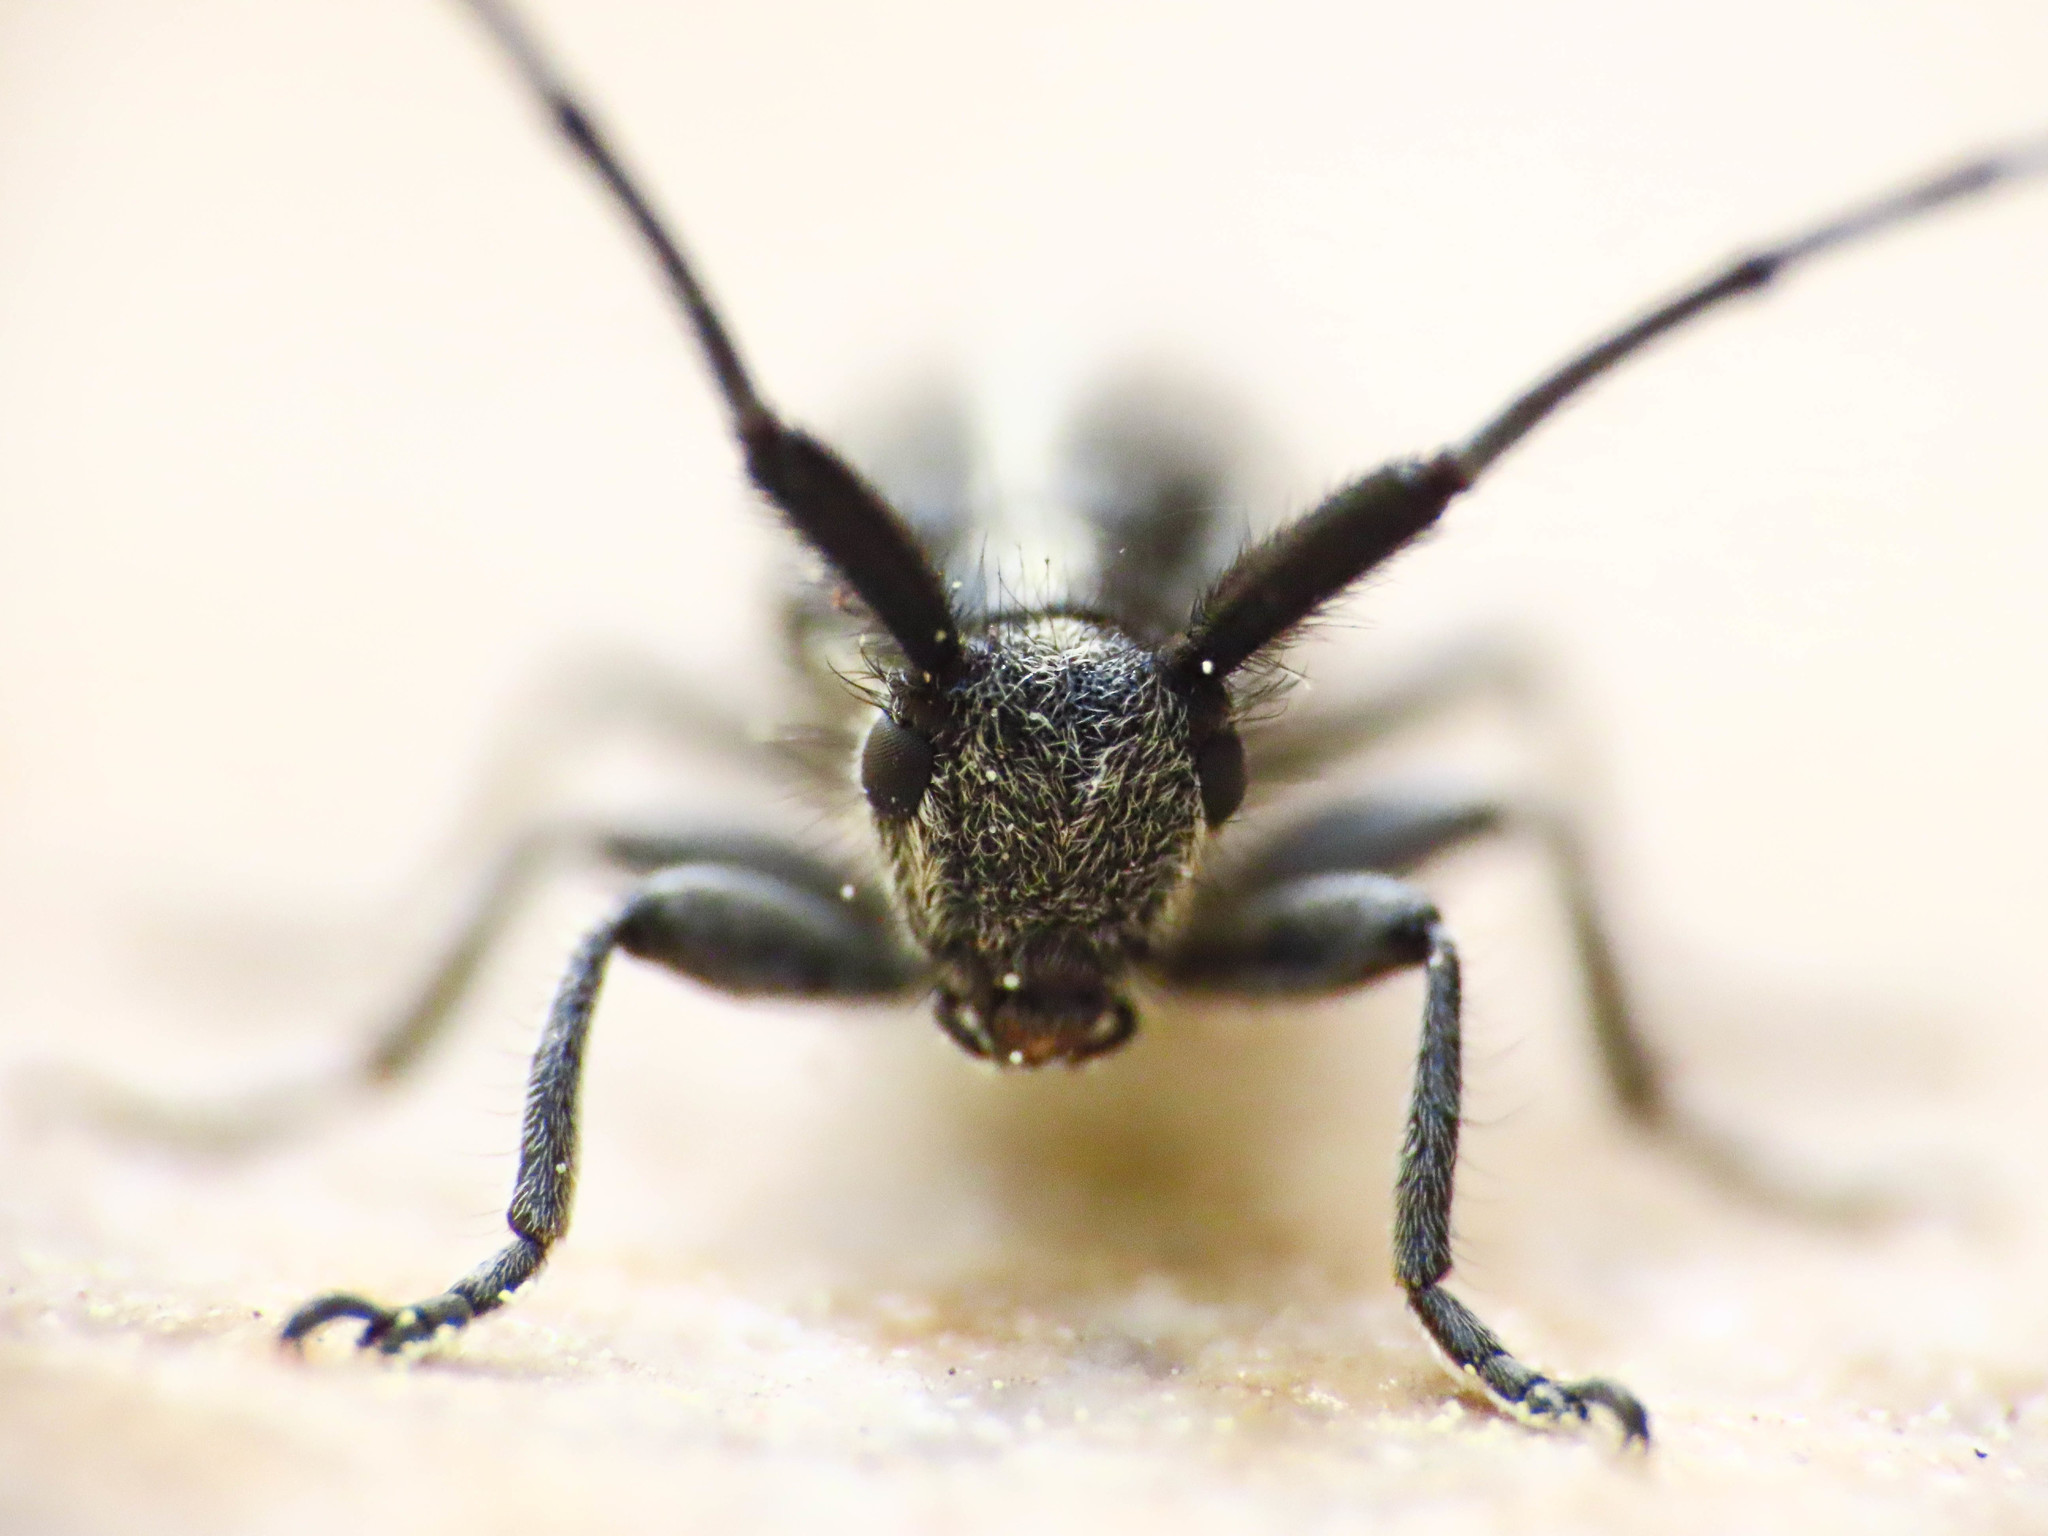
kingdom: Animalia
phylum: Arthropoda
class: Insecta
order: Coleoptera
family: Cerambycidae
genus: Agapanthia
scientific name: Agapanthia cardui
